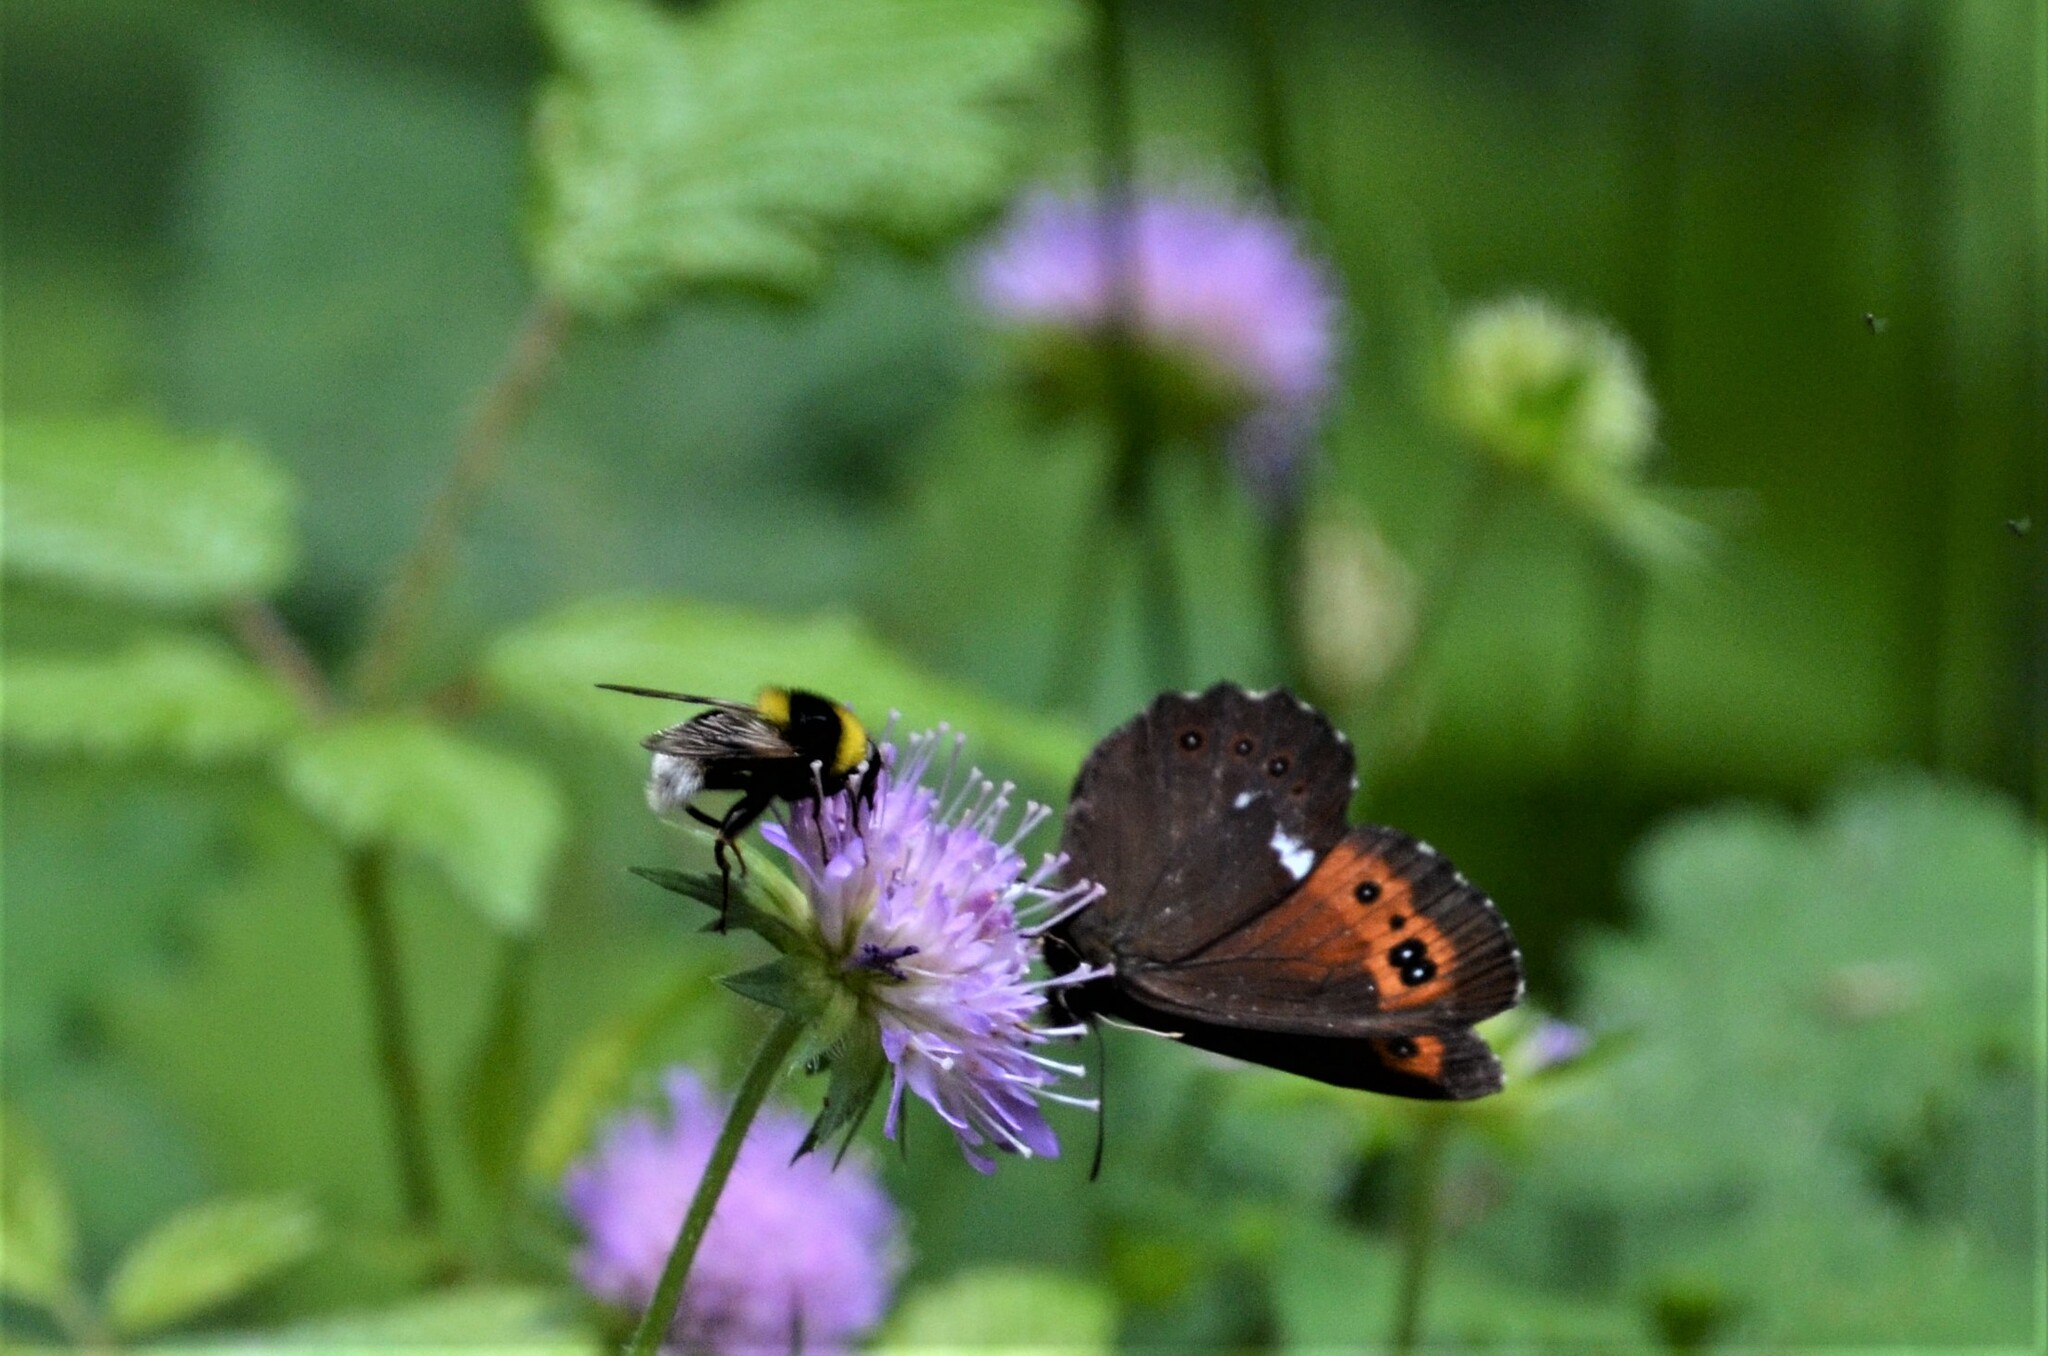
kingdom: Animalia
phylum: Arthropoda
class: Insecta
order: Lepidoptera
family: Nymphalidae
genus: Erebia
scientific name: Erebia ligea
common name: Arran brown
